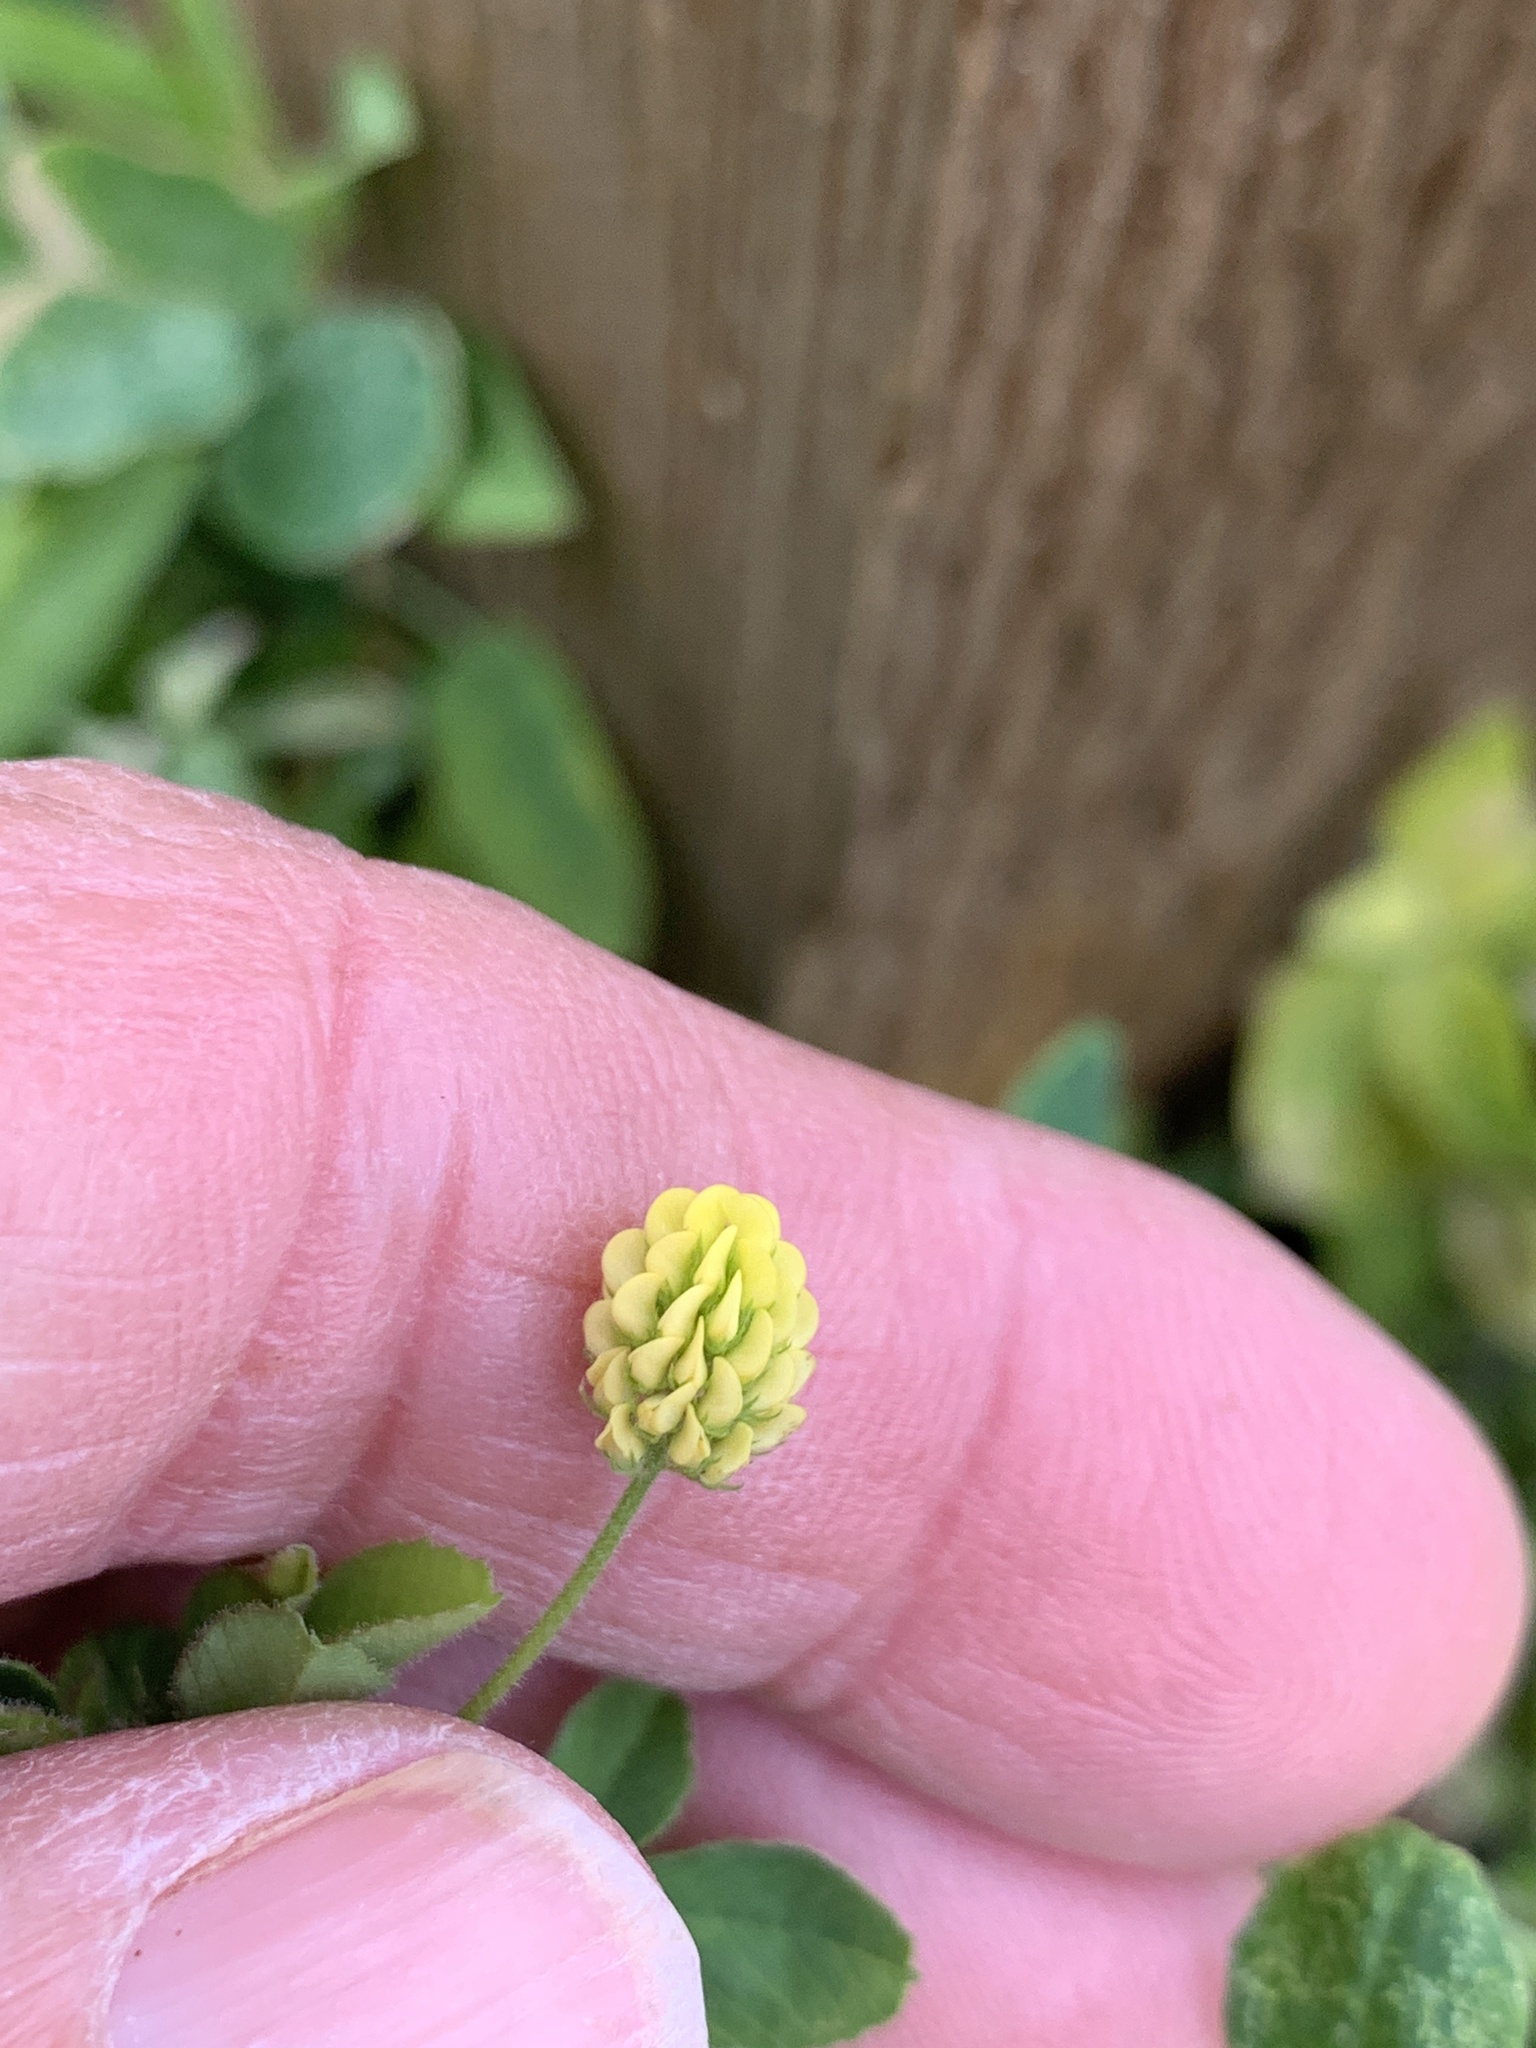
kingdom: Plantae
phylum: Tracheophyta
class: Magnoliopsida
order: Fabales
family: Fabaceae
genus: Medicago
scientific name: Medicago lupulina
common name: Black medick
